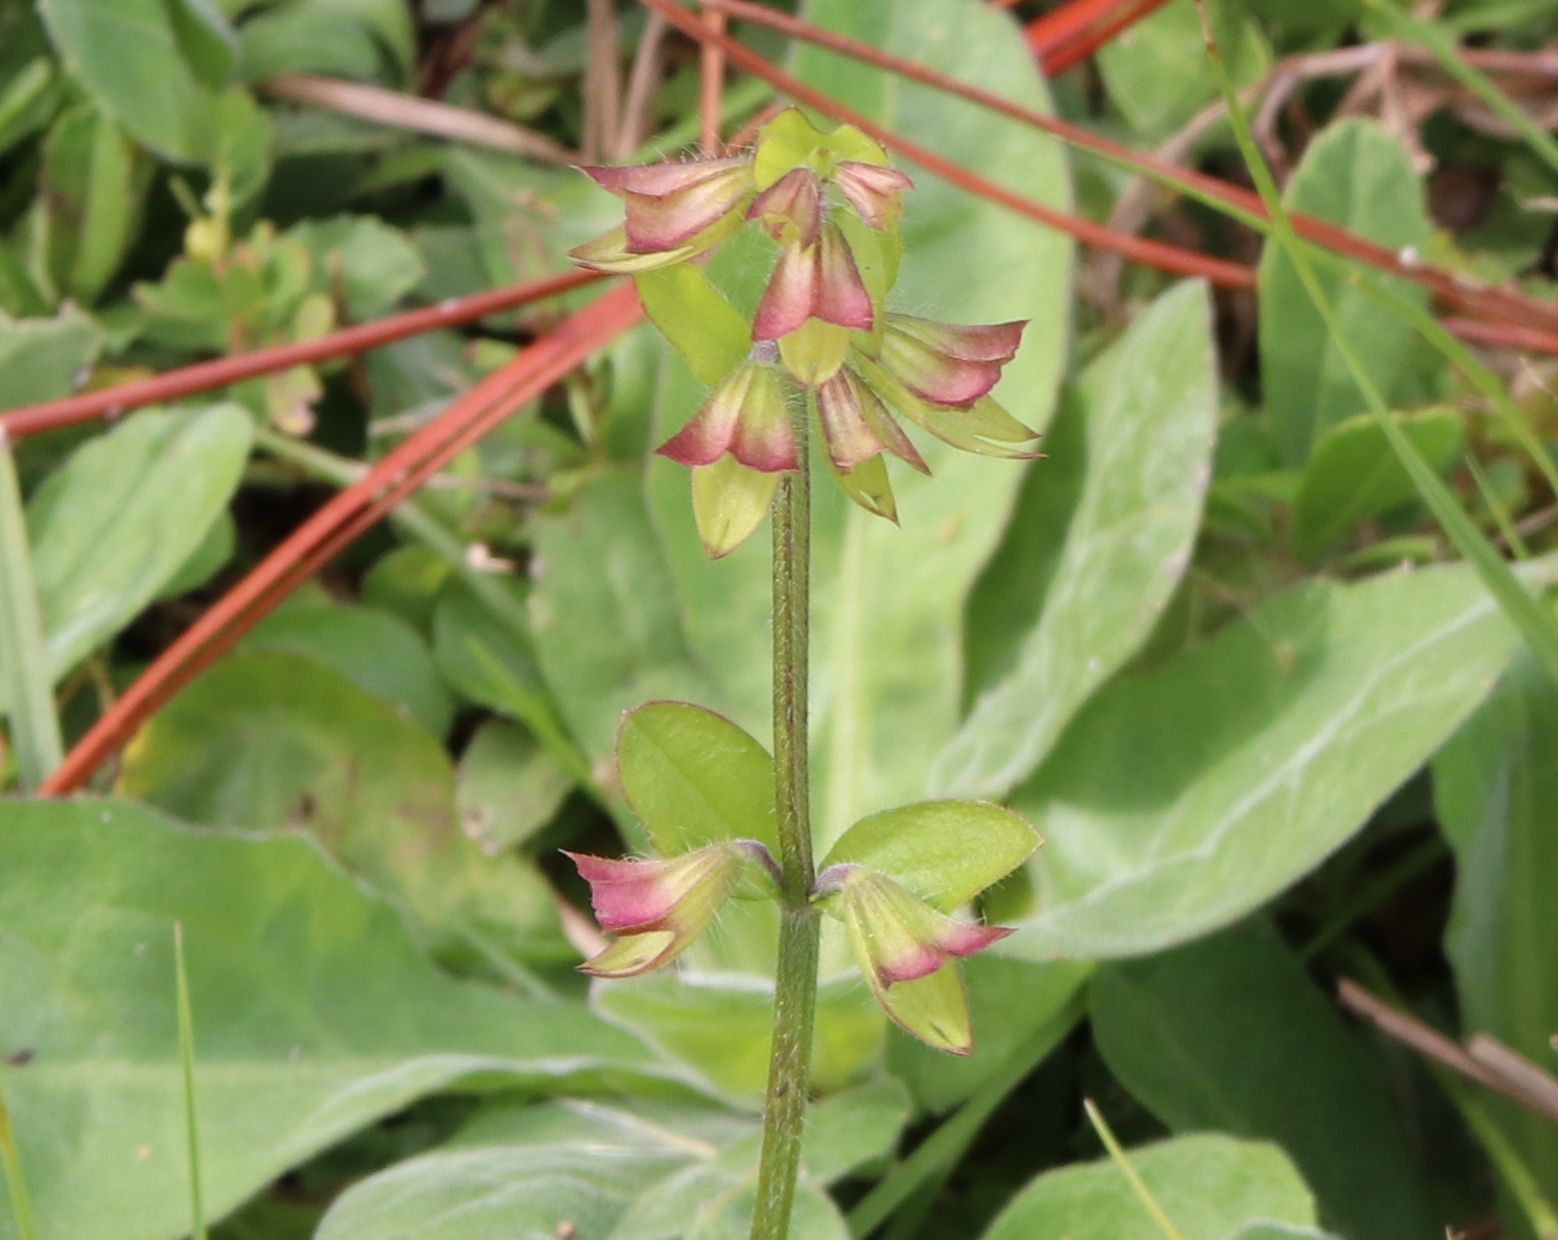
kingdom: Plantae
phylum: Tracheophyta
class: Magnoliopsida
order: Lamiales
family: Lamiaceae
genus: Salvia
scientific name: Salvia lyrata
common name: Cancerweed
